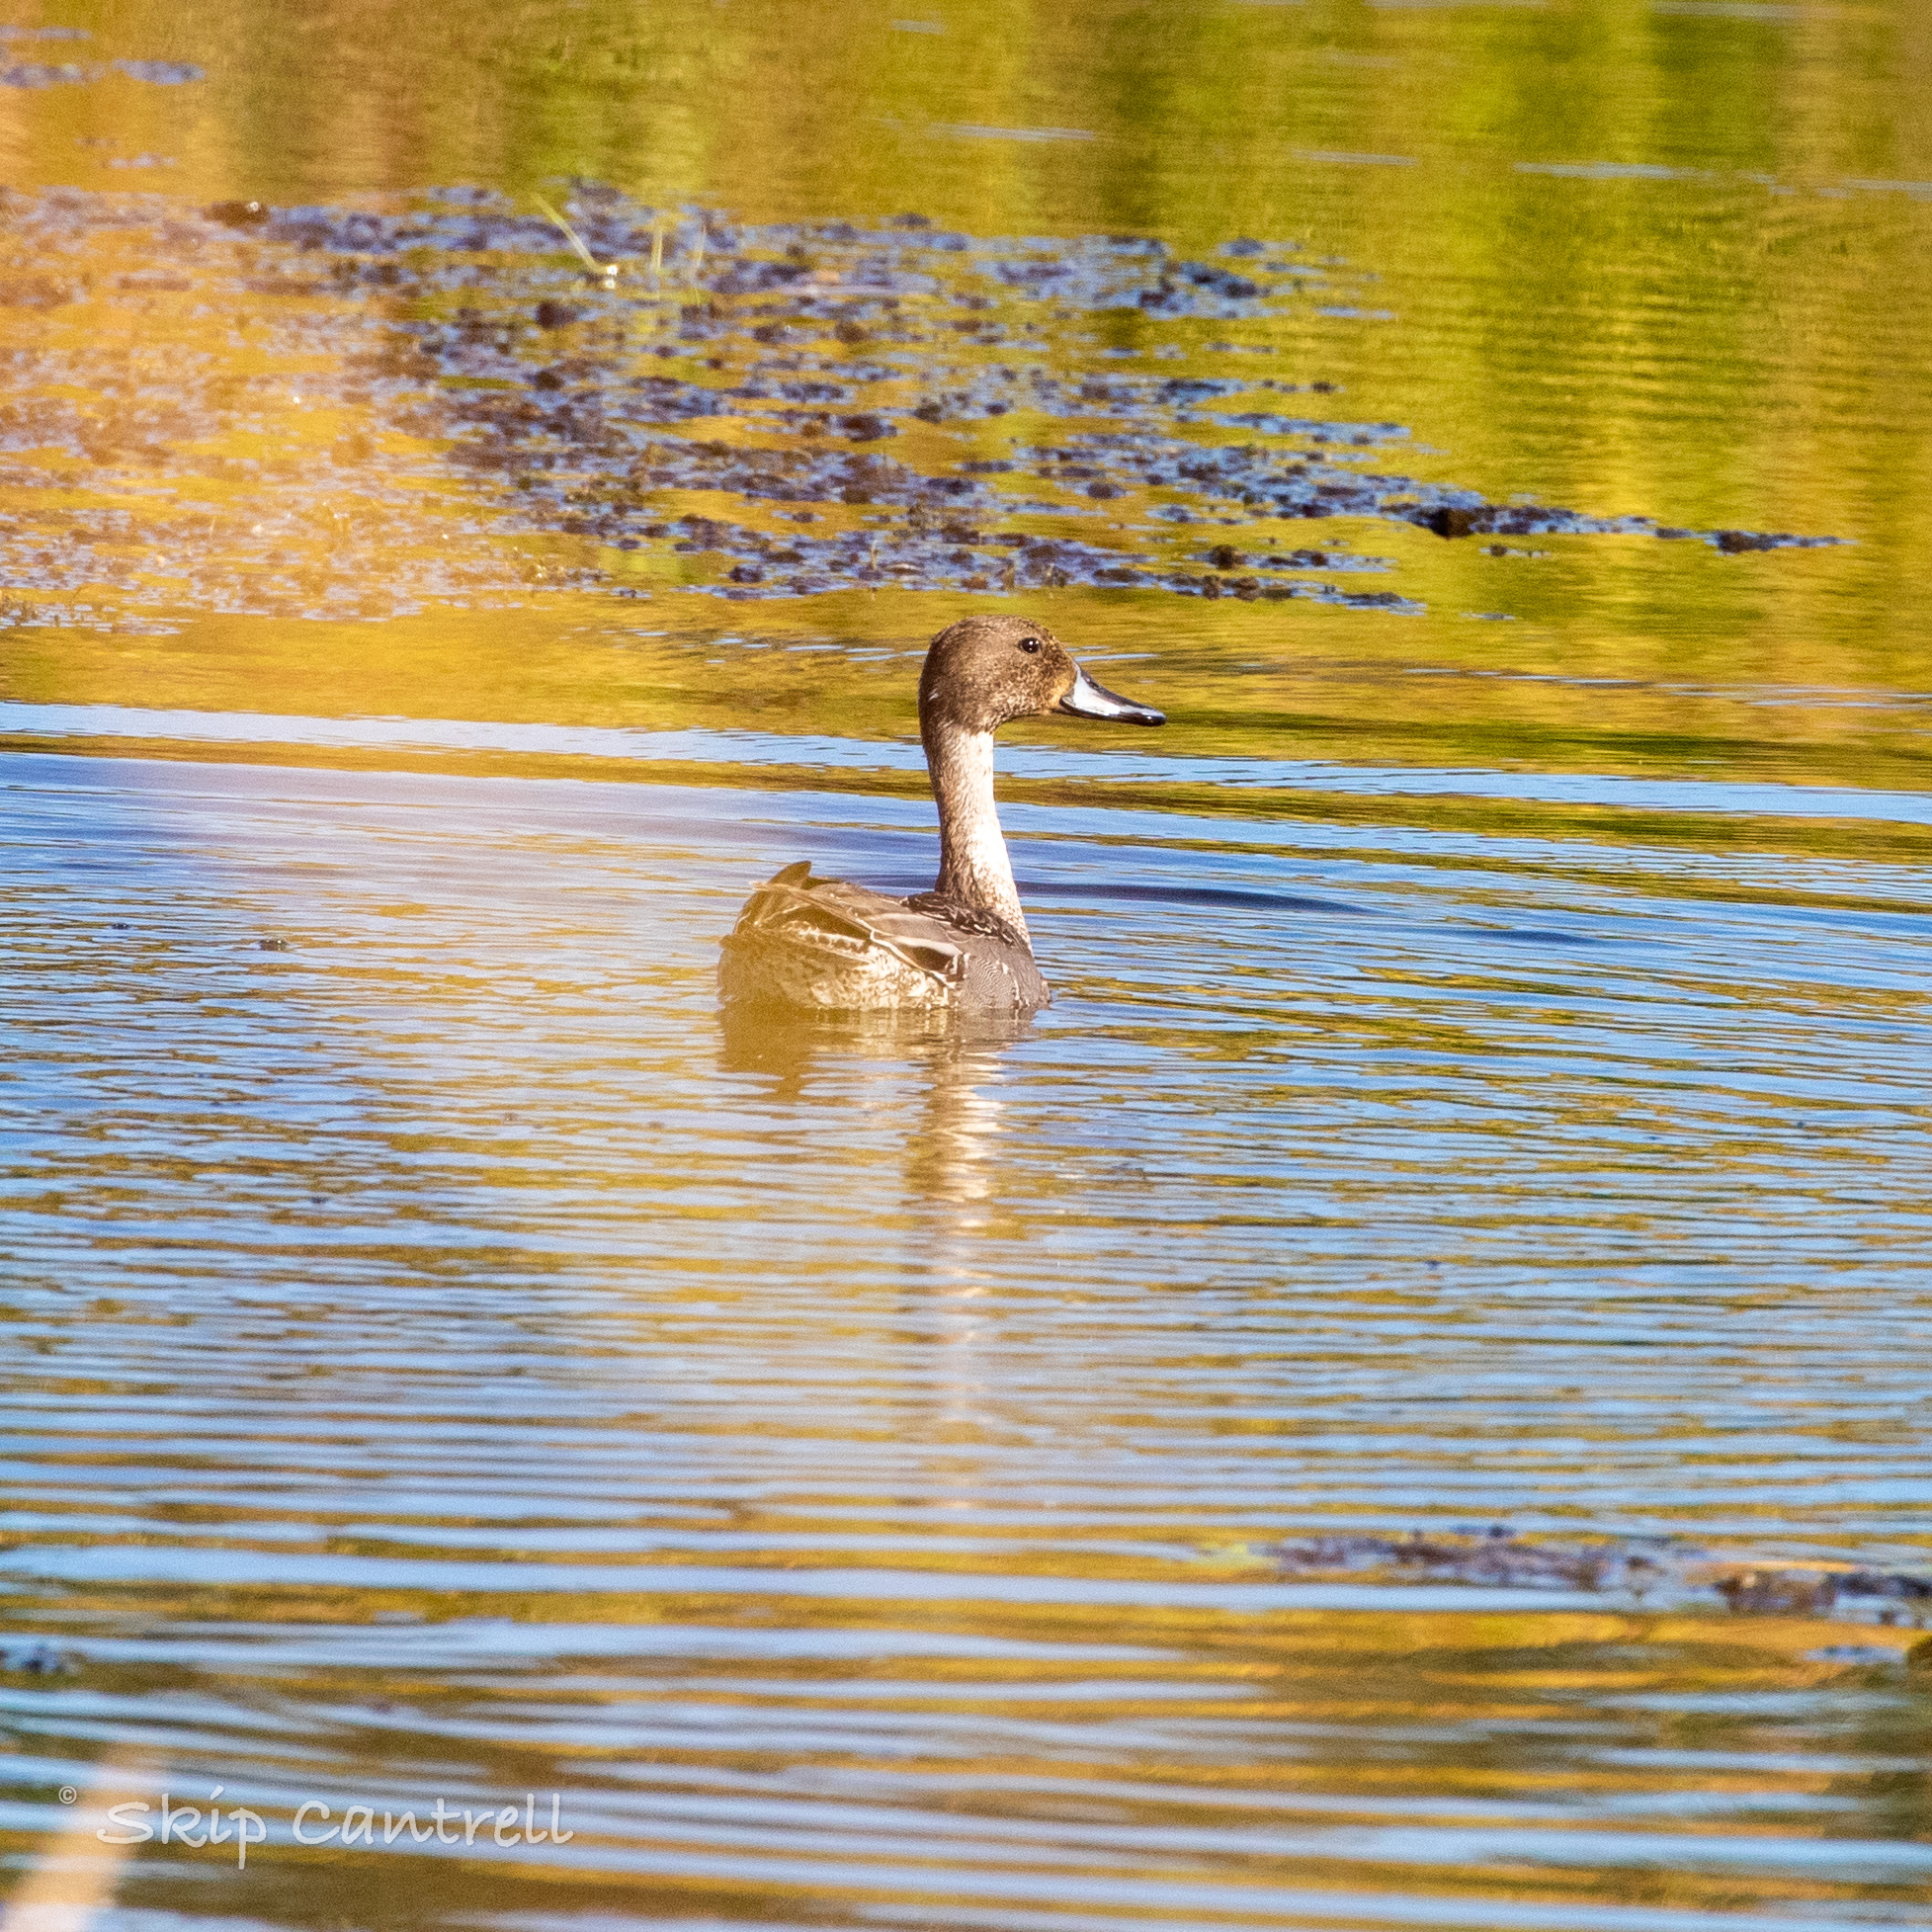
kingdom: Animalia
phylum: Chordata
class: Aves
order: Anseriformes
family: Anatidae
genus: Anas
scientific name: Anas acuta
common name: Northern pintail
